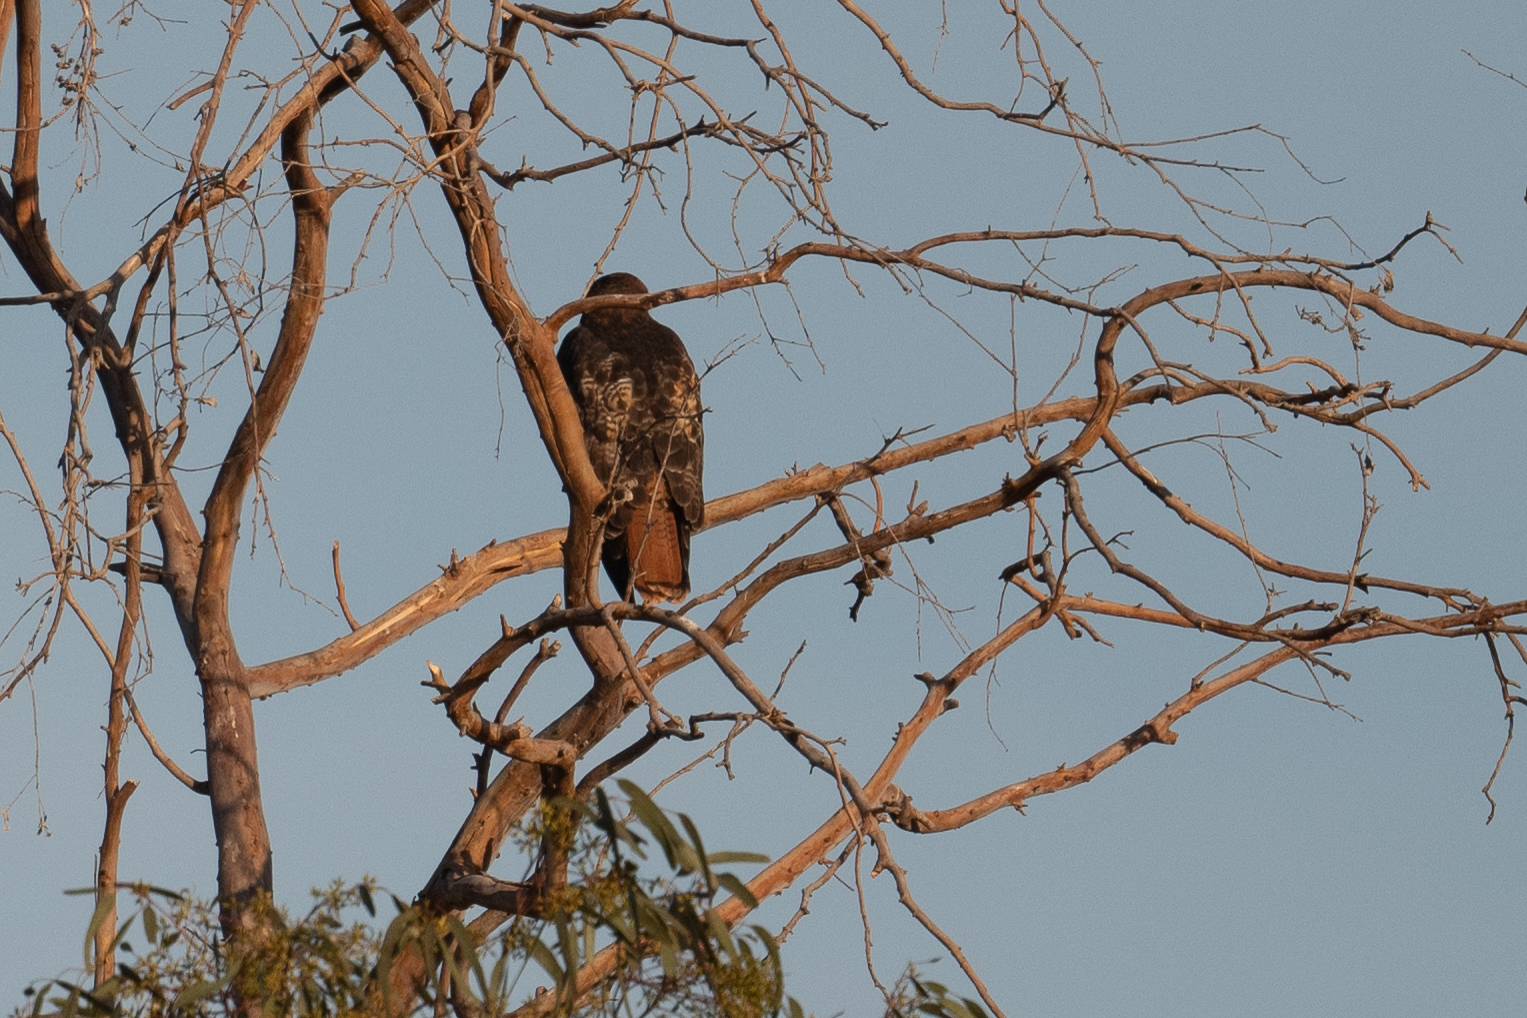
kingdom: Animalia
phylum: Chordata
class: Aves
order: Accipitriformes
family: Accipitridae
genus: Buteo
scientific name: Buteo jamaicensis
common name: Red-tailed hawk
